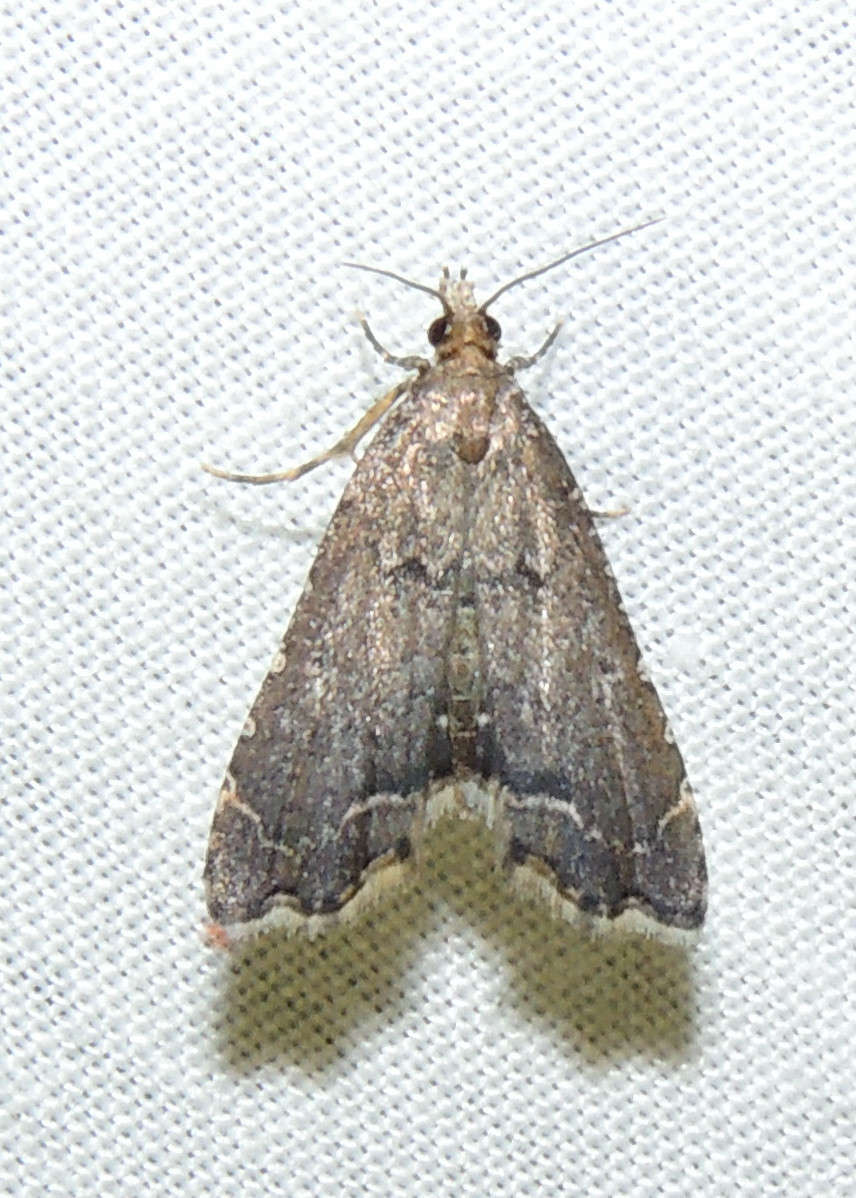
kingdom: Animalia
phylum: Arthropoda
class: Insecta
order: Lepidoptera
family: Crambidae
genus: Diplopseustis
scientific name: Diplopseustis perieresalis
